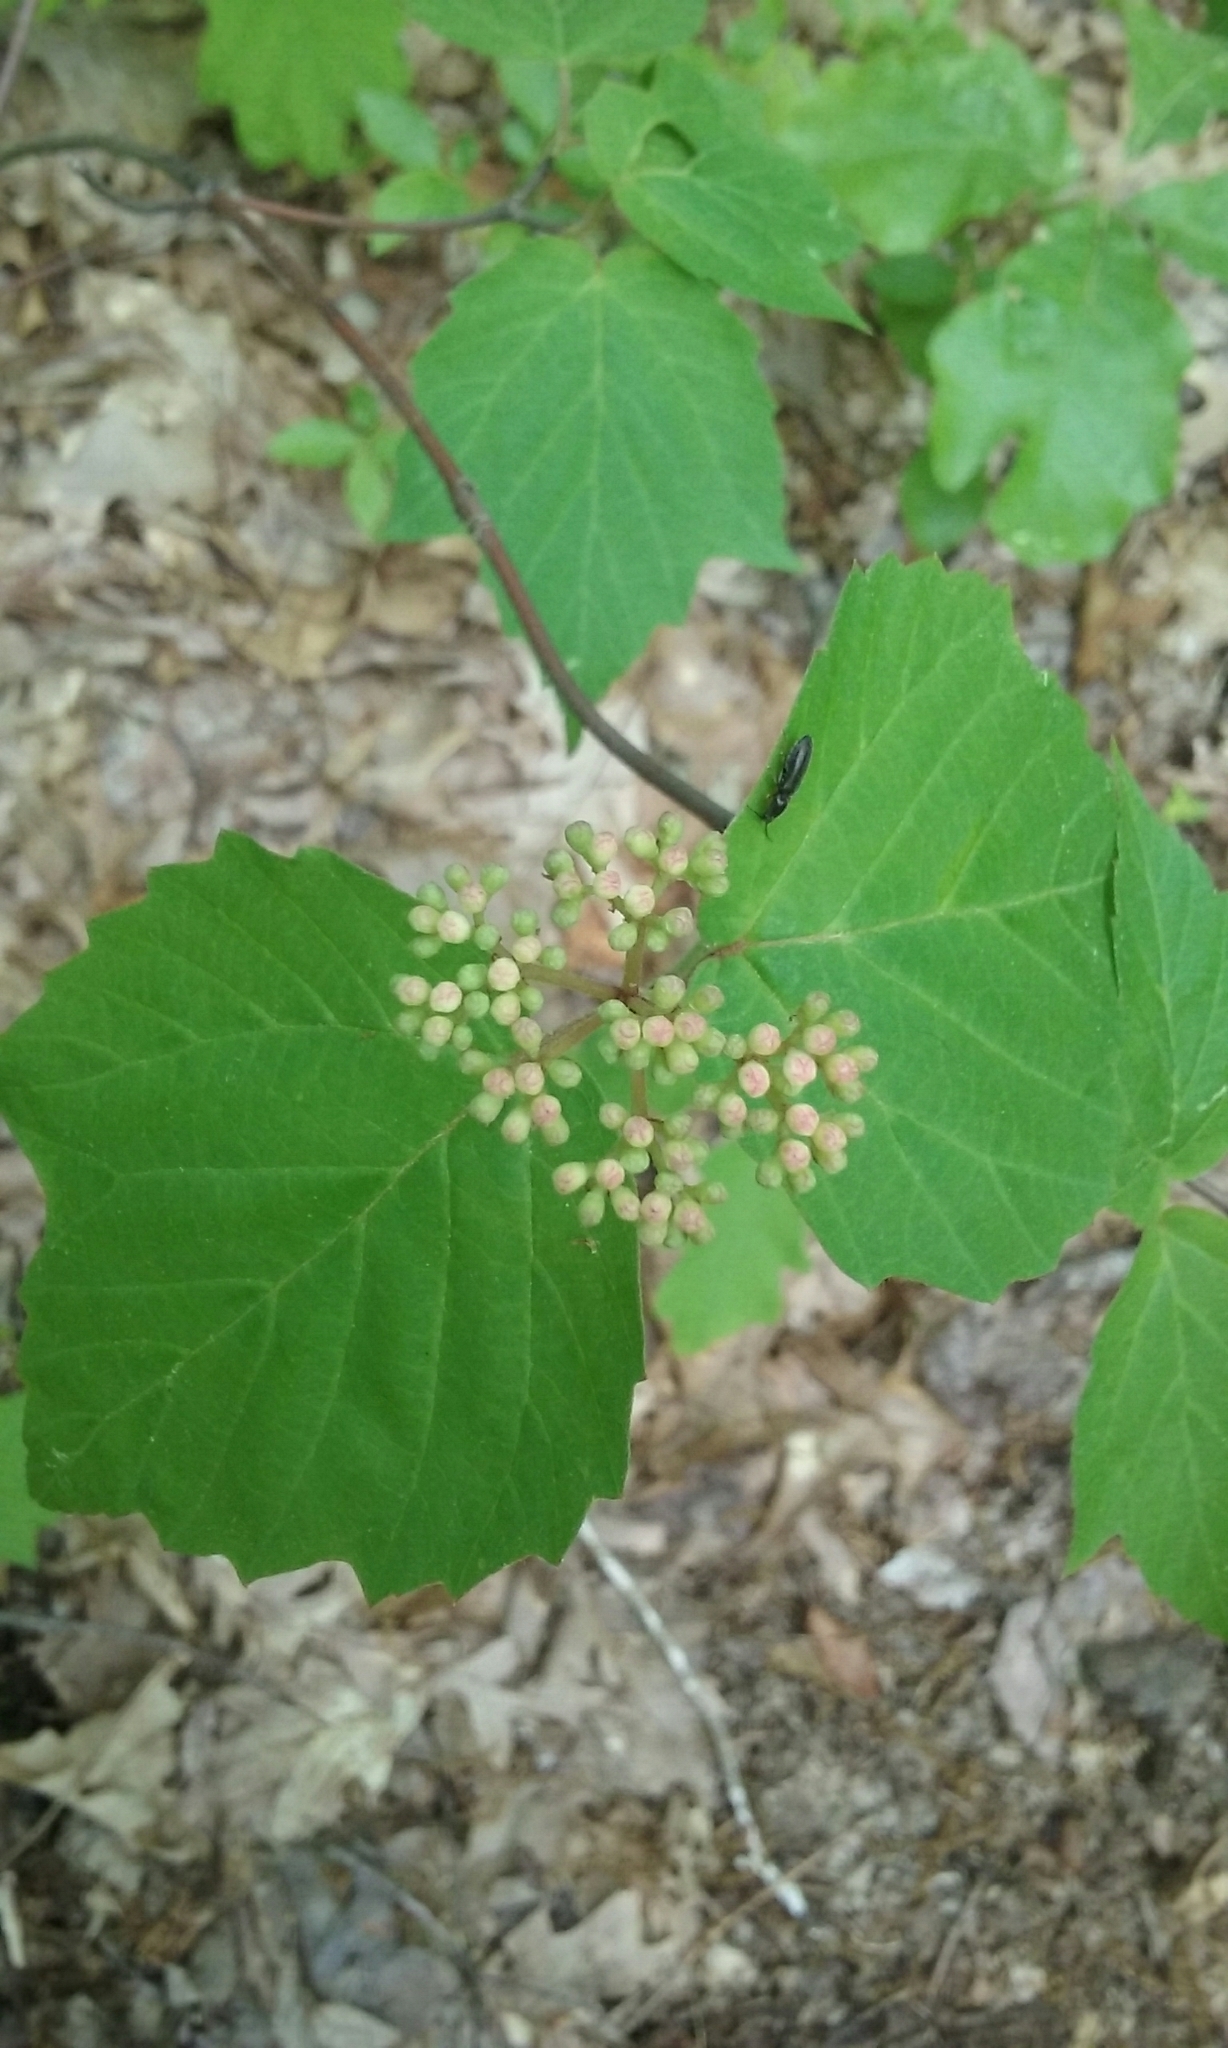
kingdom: Plantae
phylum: Tracheophyta
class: Magnoliopsida
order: Dipsacales
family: Viburnaceae
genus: Viburnum
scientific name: Viburnum acerifolium
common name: Dockmackie
